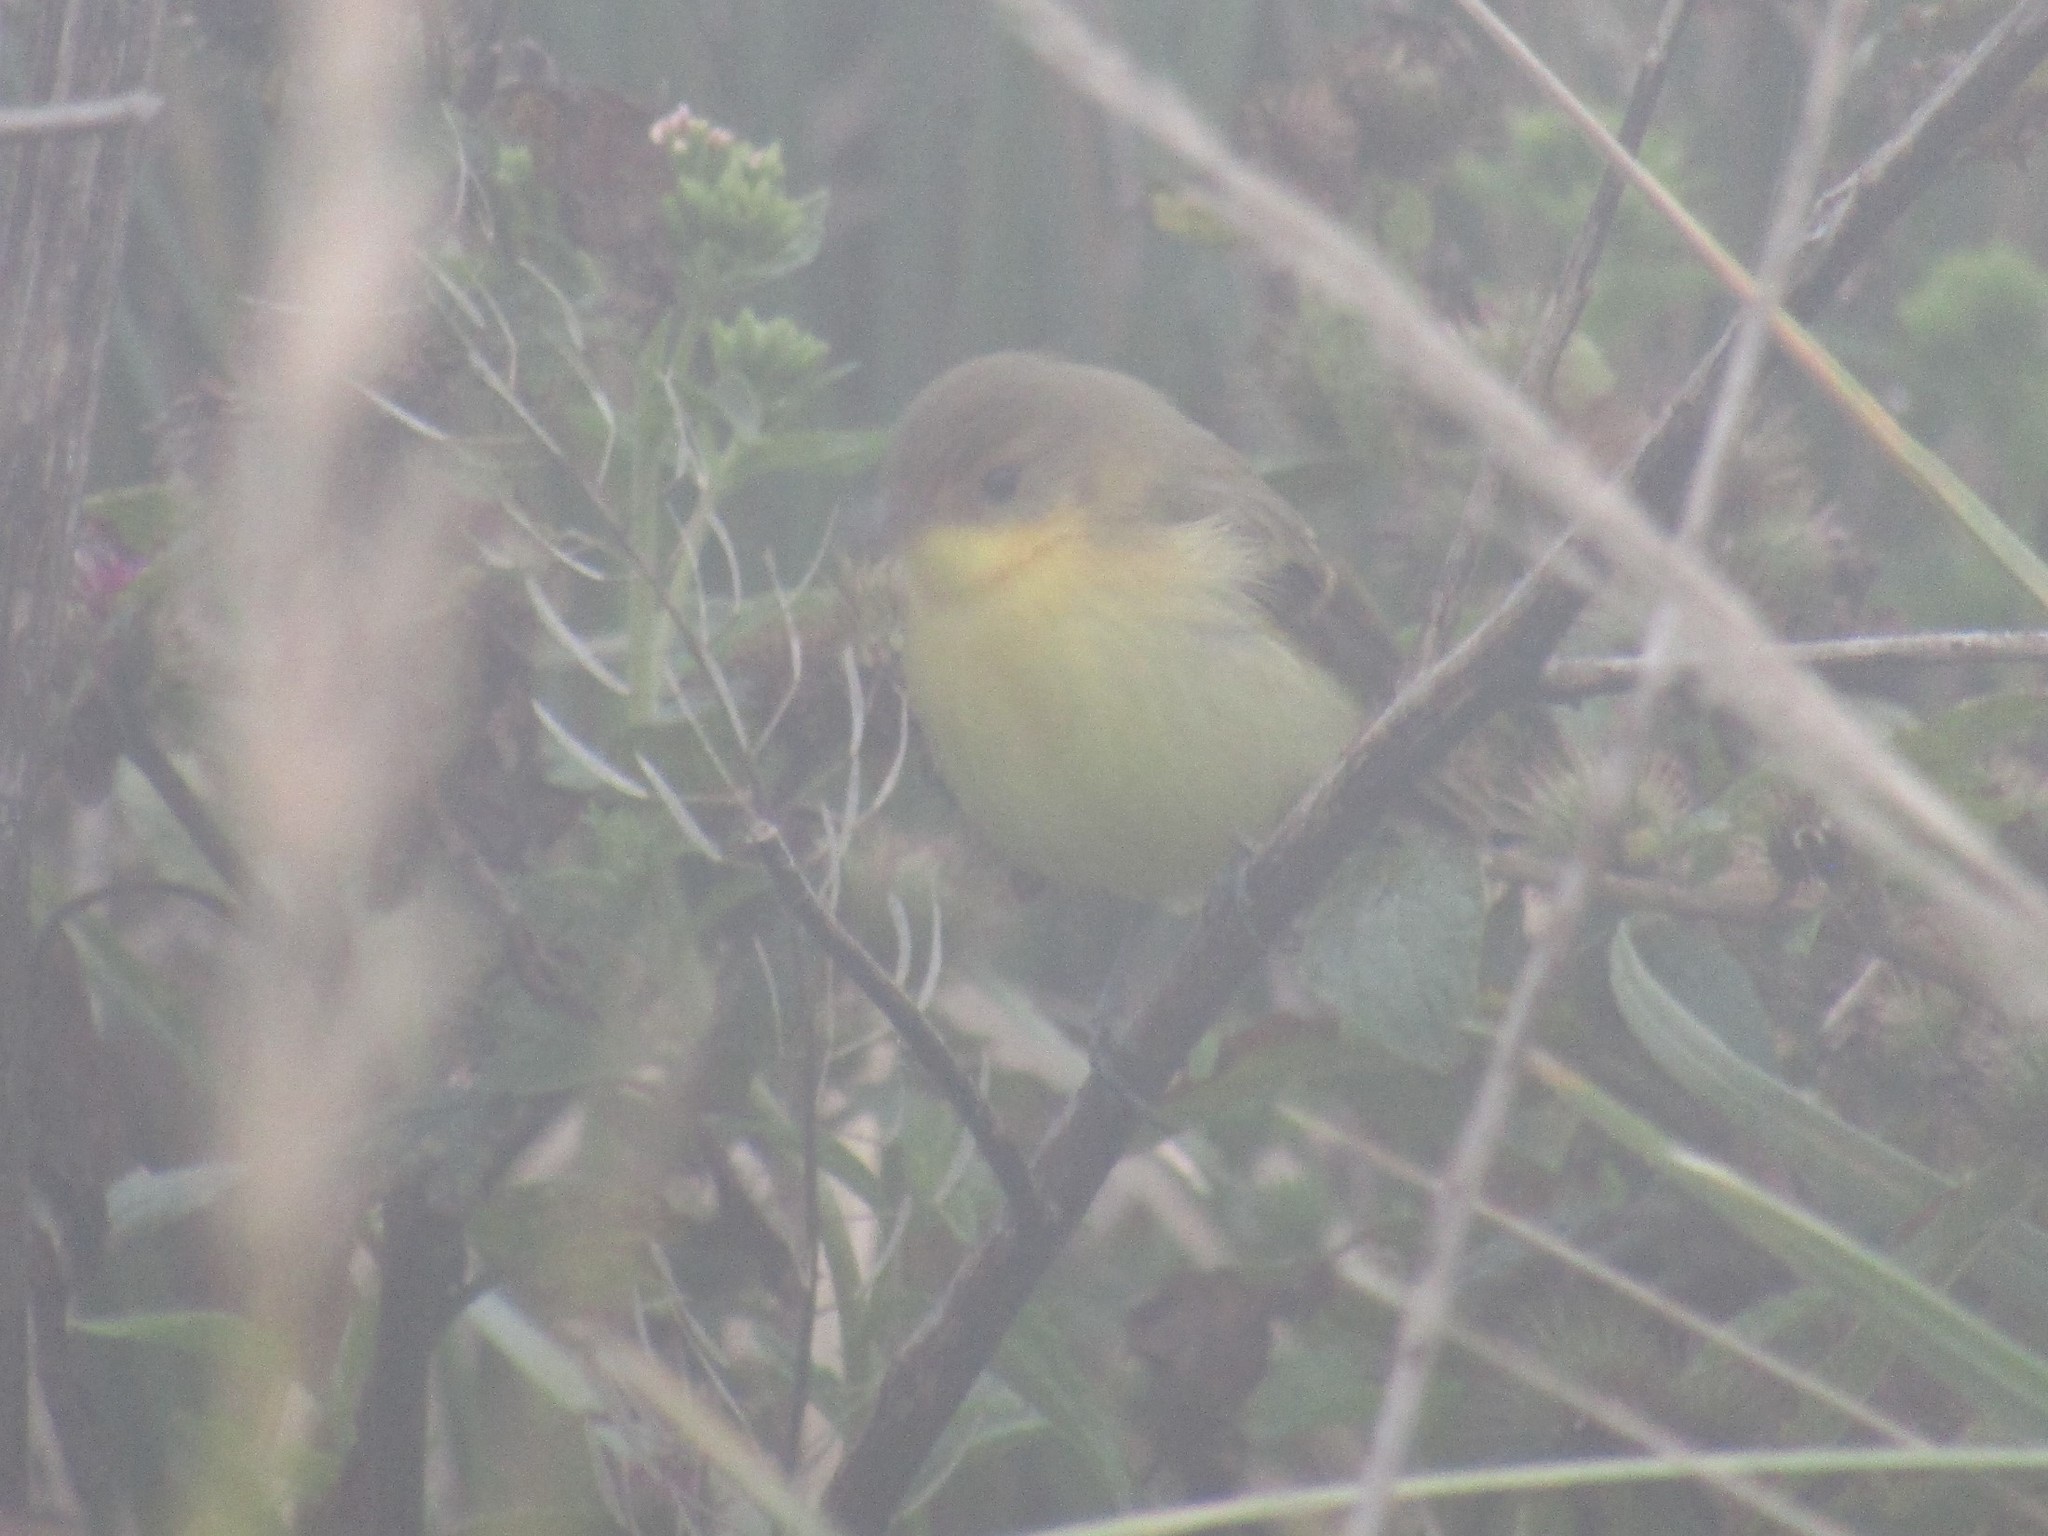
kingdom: Animalia
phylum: Chordata
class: Aves
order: Passeriformes
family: Tyrannidae
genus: Pseudocolopteryx
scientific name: Pseudocolopteryx acutipennis
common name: Subtropical doradito
